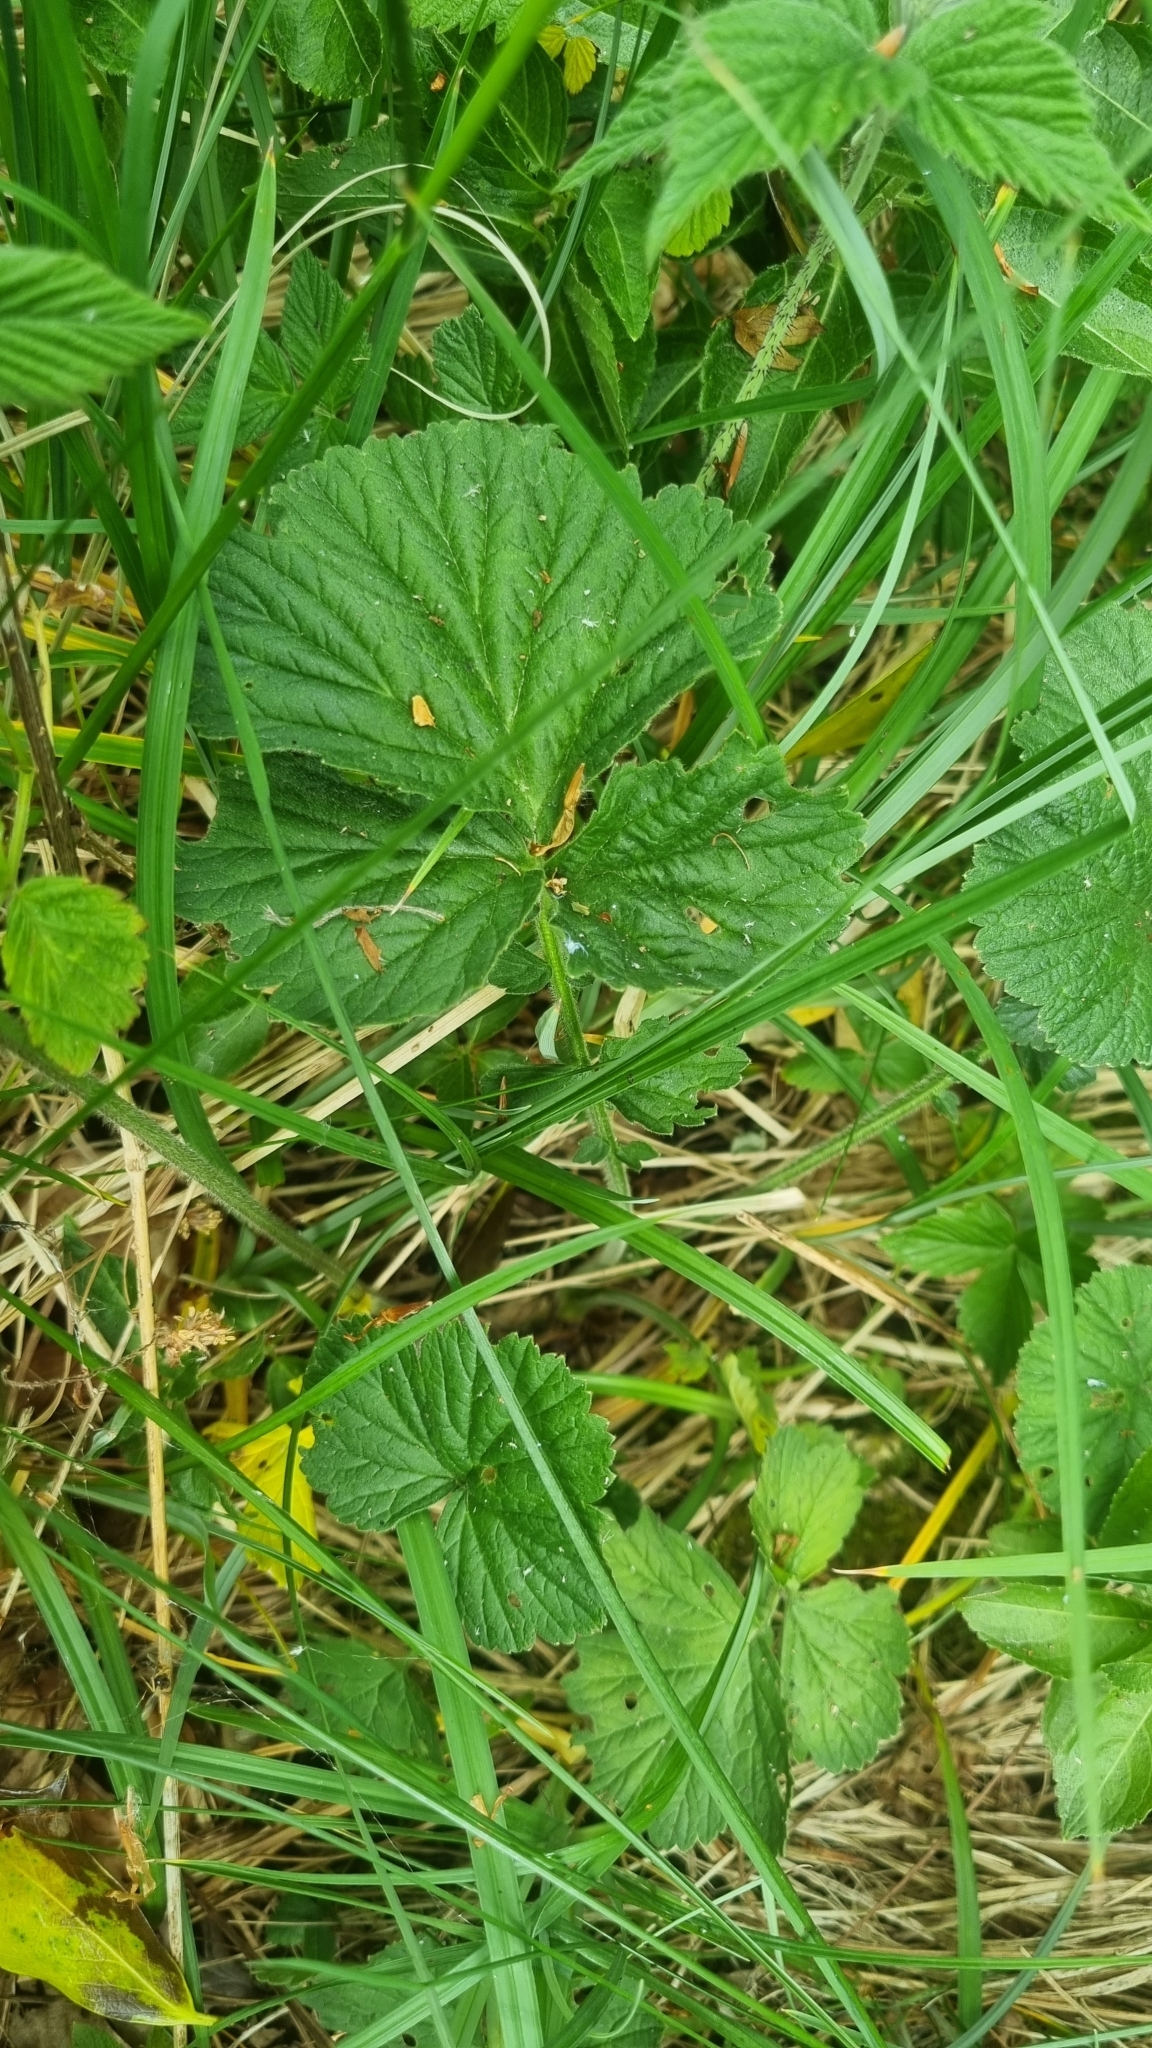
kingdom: Plantae
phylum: Tracheophyta
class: Magnoliopsida
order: Rosales
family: Rosaceae
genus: Geum
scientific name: Geum rivale
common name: Water avens
